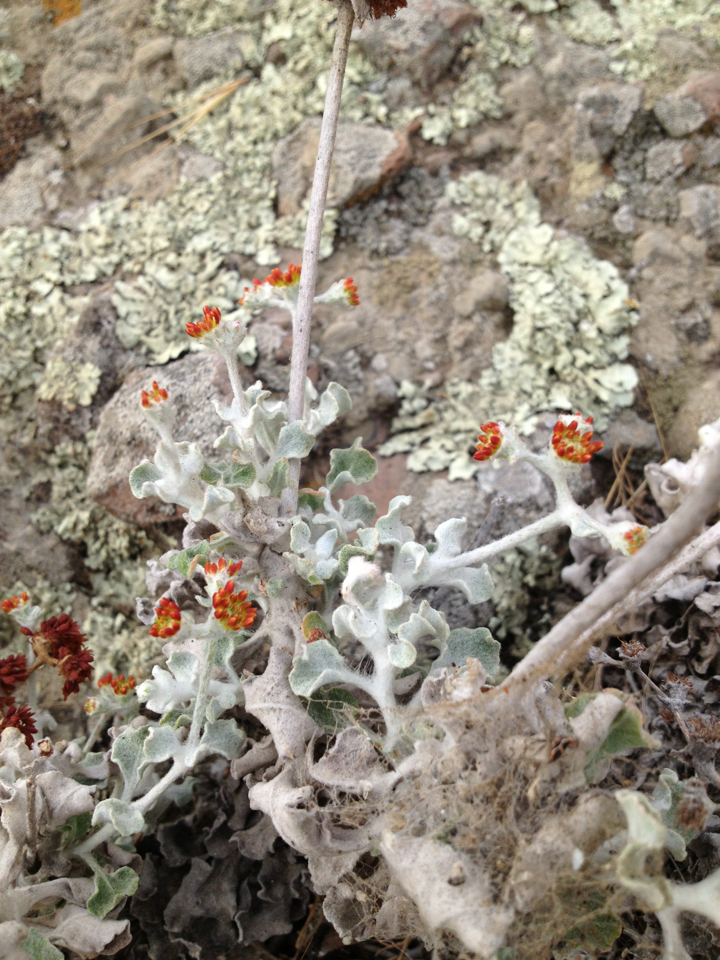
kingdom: Plantae
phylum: Tracheophyta
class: Magnoliopsida
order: Caryophyllales
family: Polygonaceae
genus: Eriogonum
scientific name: Eriogonum crocatum
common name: Saffron wild buckwheat
